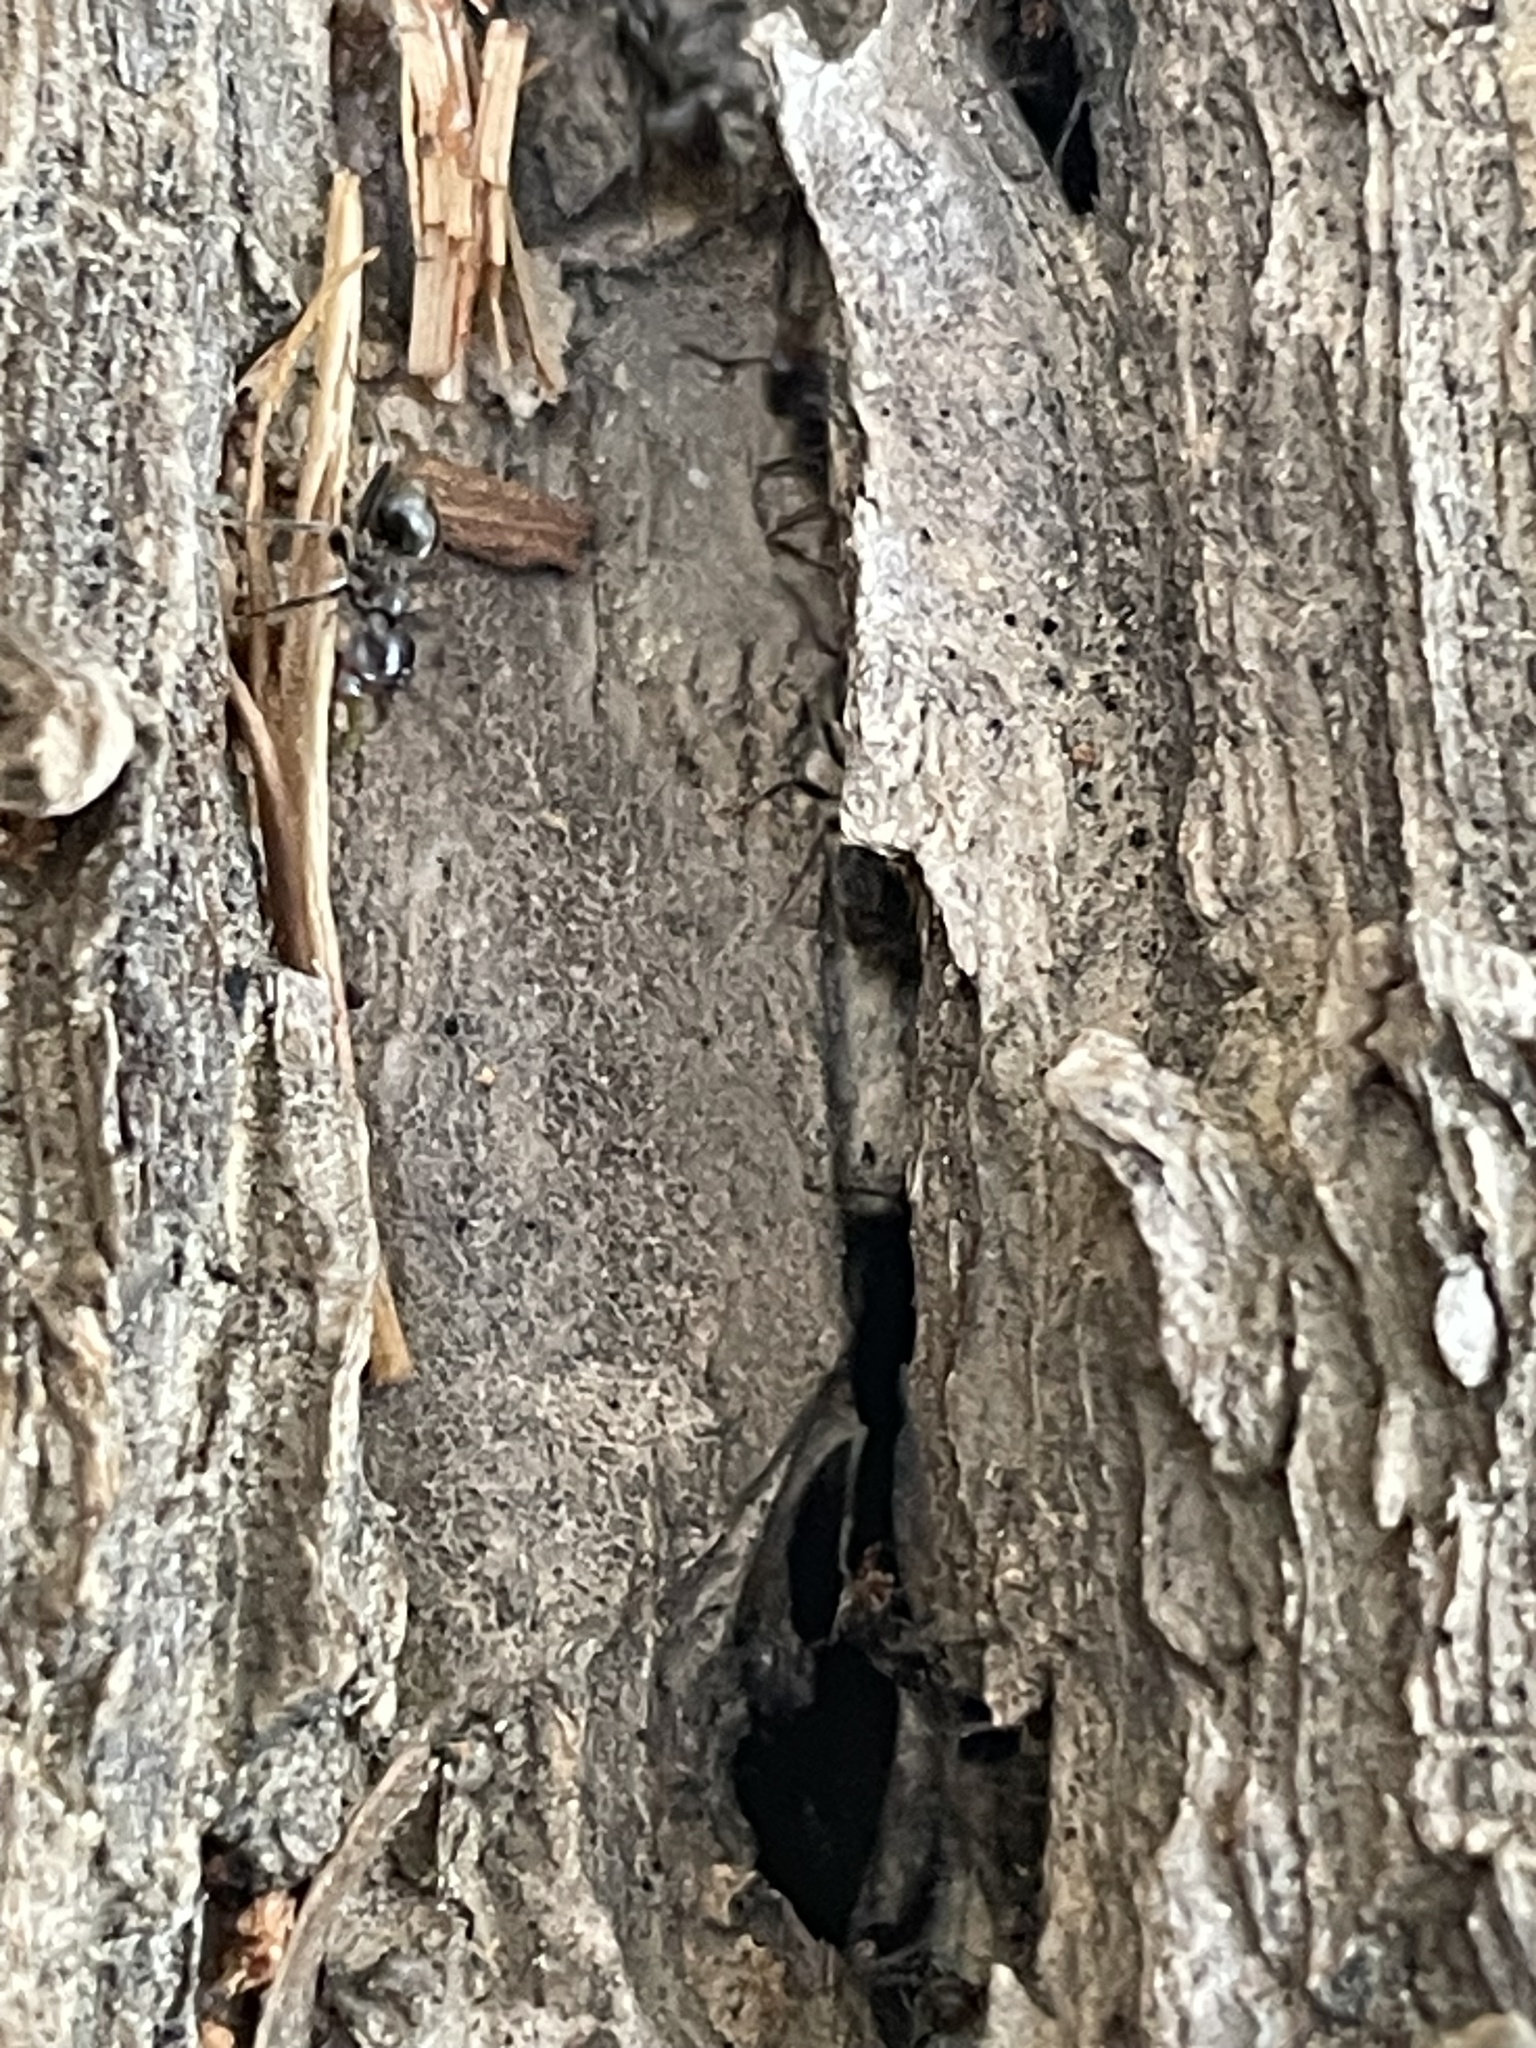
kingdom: Animalia
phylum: Arthropoda
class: Insecta
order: Hymenoptera
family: Formicidae
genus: Liometopum
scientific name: Liometopum luctuosum
